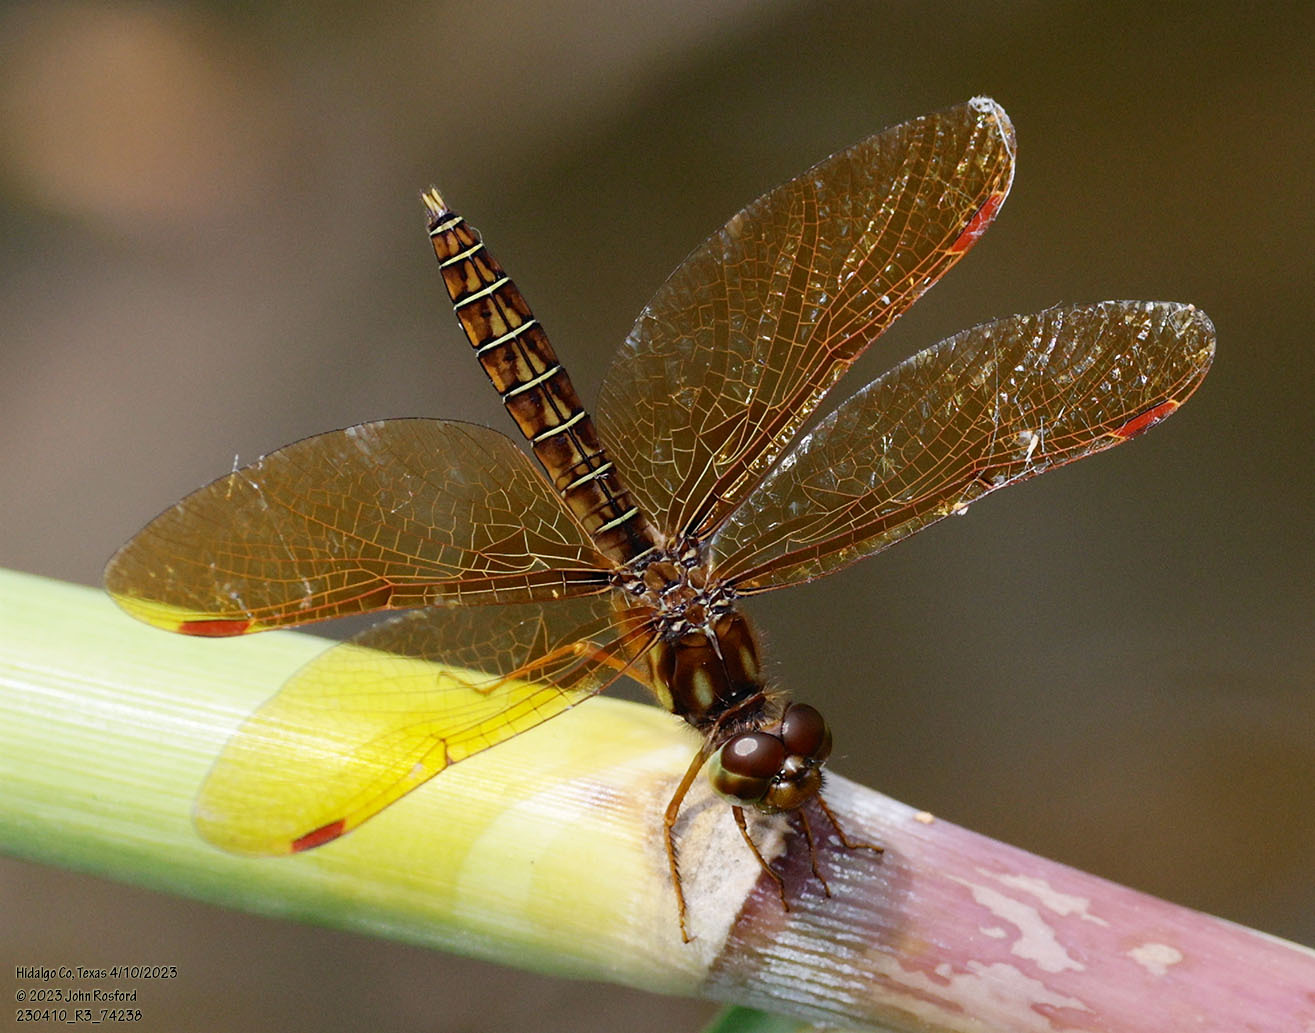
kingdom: Animalia
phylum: Arthropoda
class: Insecta
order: Odonata
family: Libellulidae
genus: Perithemis
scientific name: Perithemis tenera
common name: Eastern amberwing
